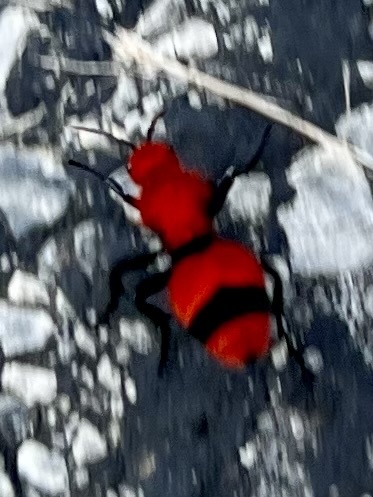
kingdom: Animalia
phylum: Arthropoda
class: Insecta
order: Hymenoptera
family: Mutillidae
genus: Dasymutilla
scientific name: Dasymutilla occidentalis
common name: Common eastern velvet ant
